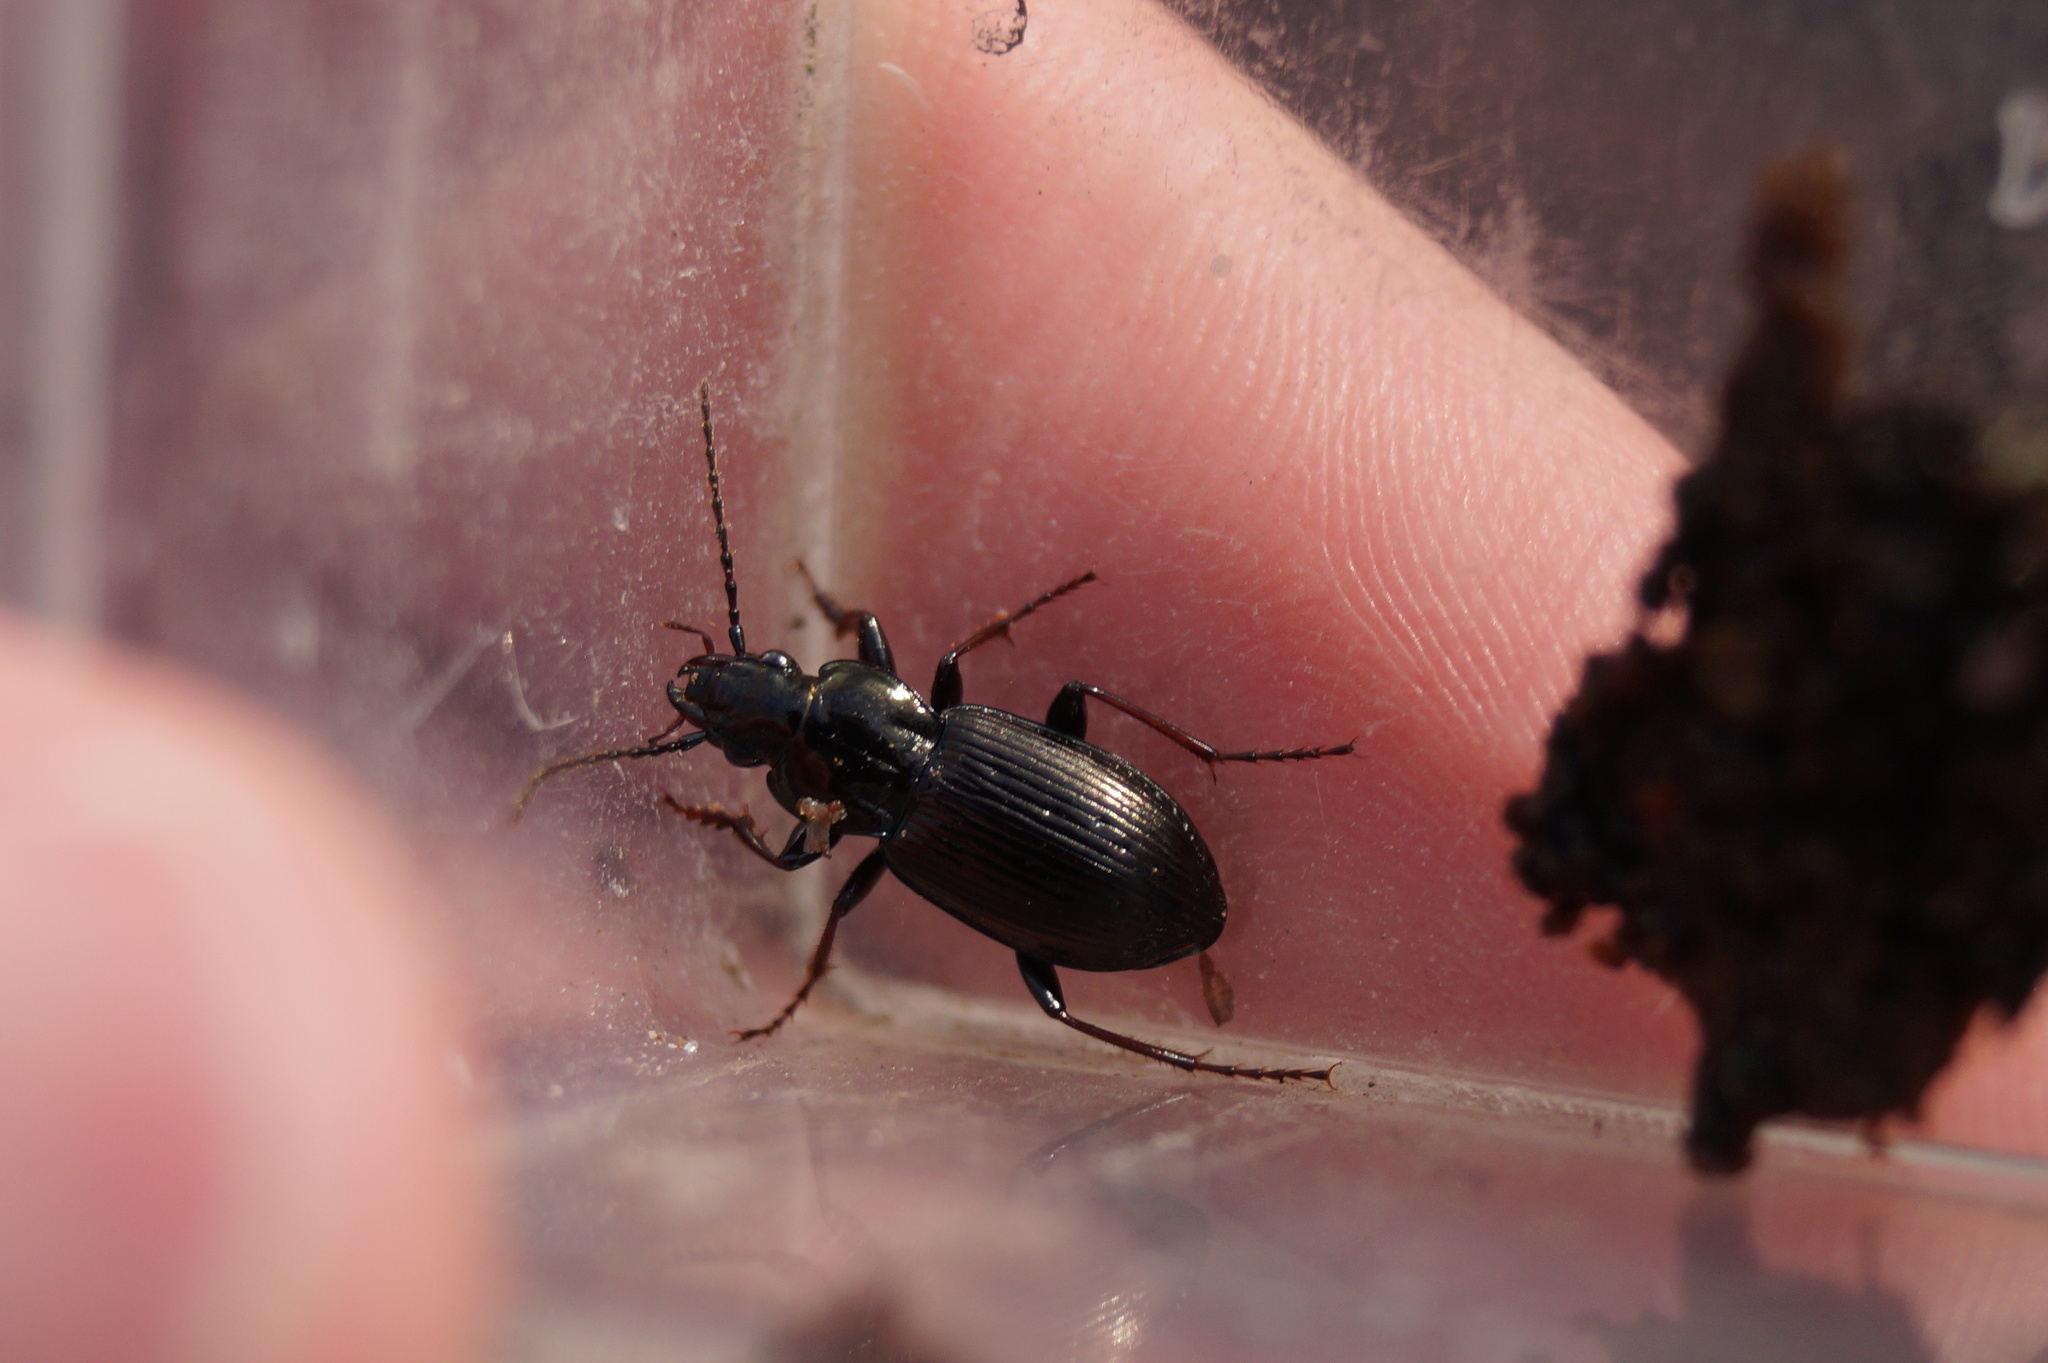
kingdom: Animalia
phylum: Arthropoda
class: Insecta
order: Coleoptera
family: Carabidae
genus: Pterostichus
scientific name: Pterostichus oblongopunctatus
